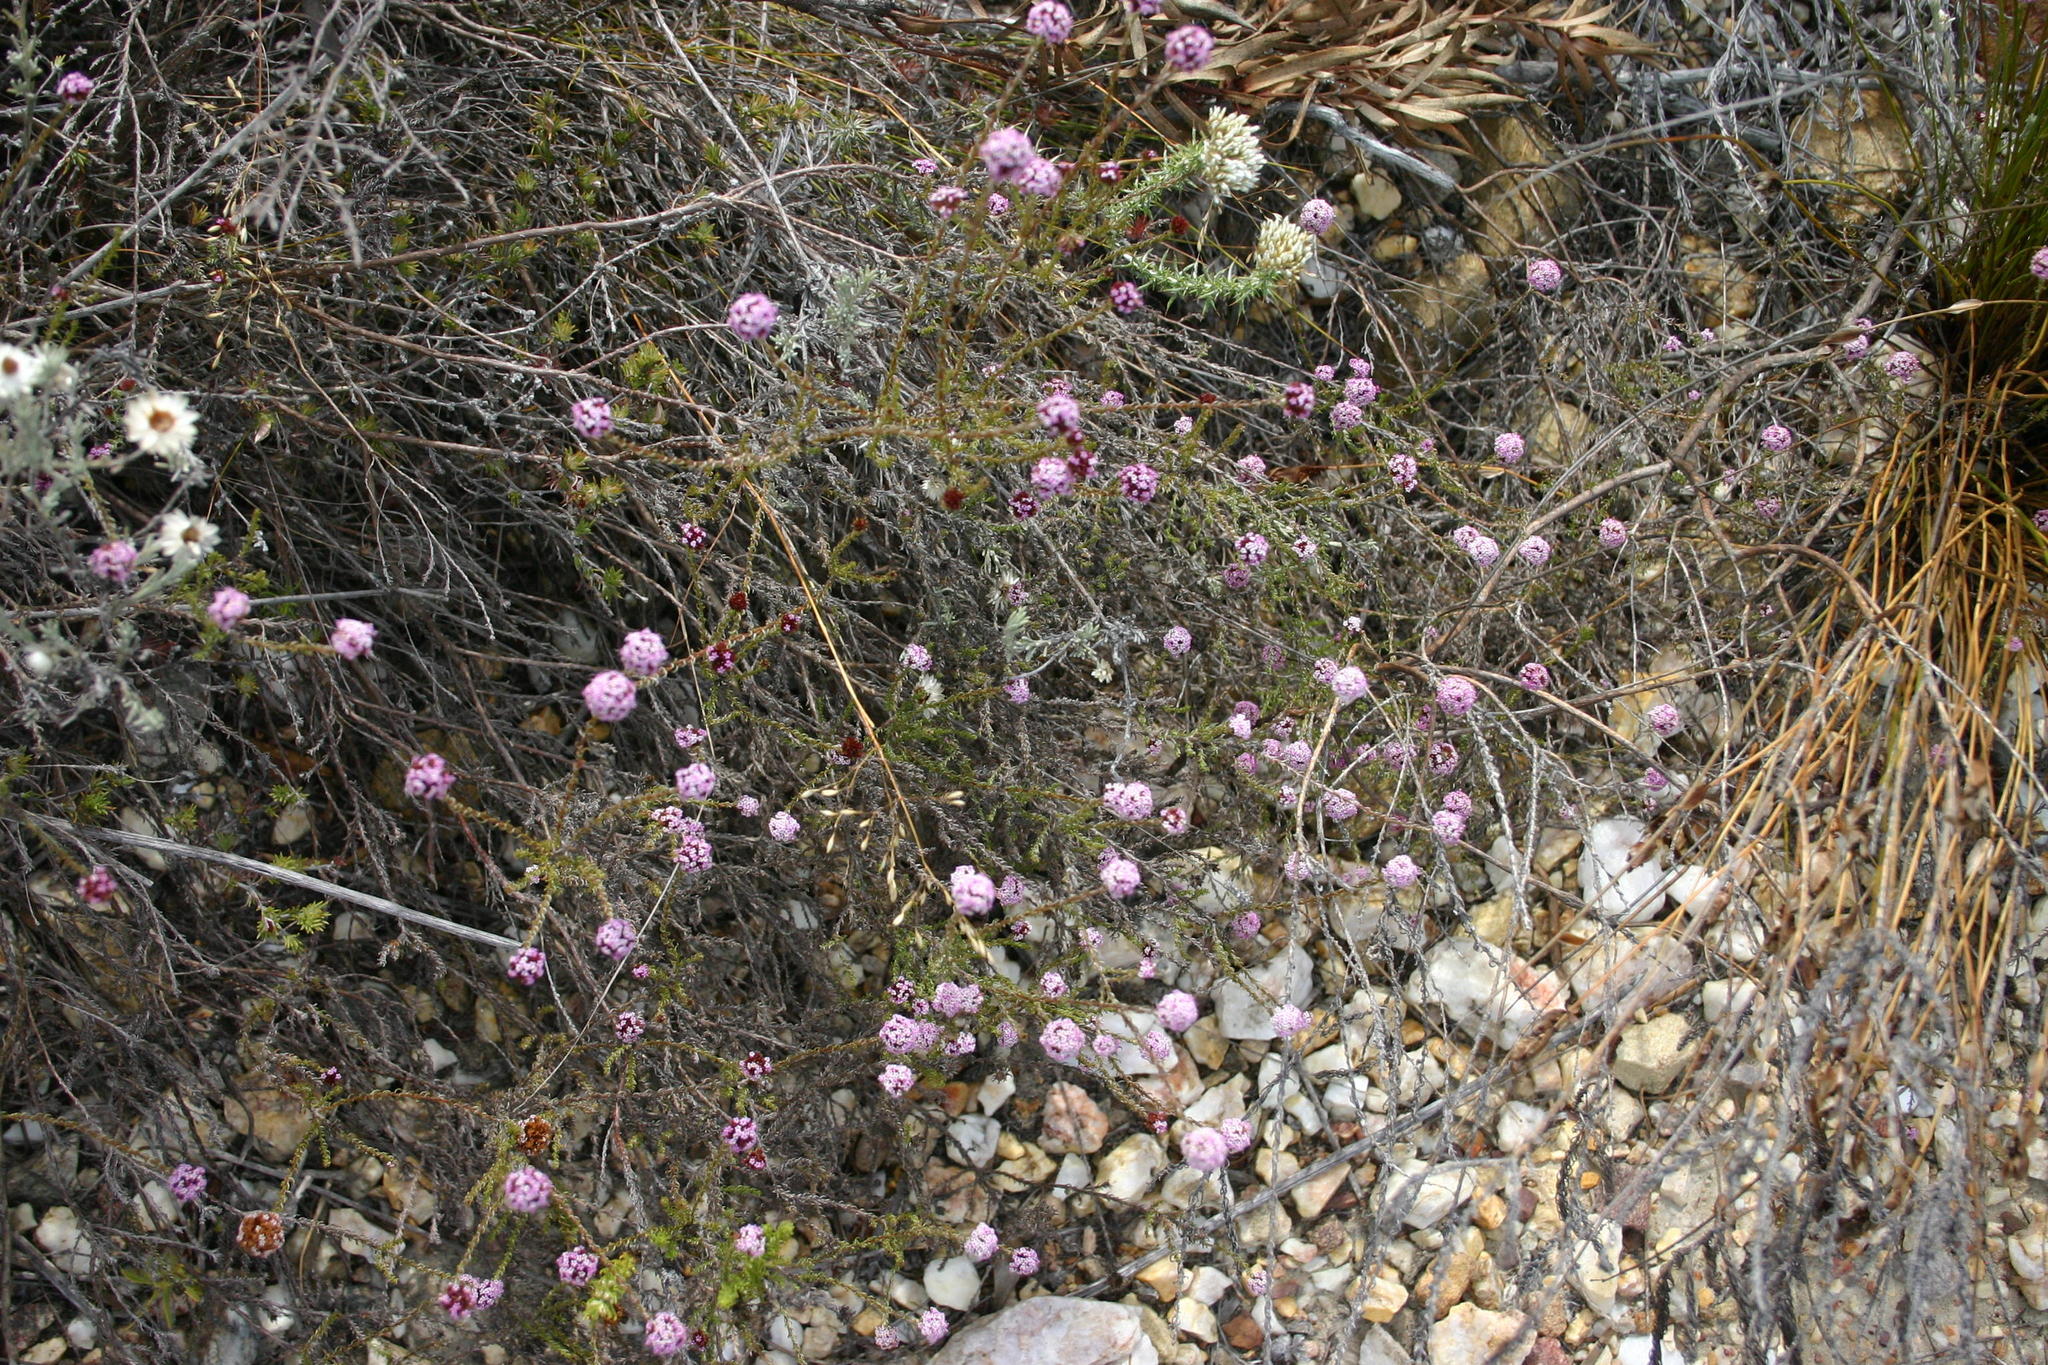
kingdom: Plantae
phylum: Tracheophyta
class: Magnoliopsida
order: Asterales
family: Asteraceae
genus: Stoebe
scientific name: Stoebe capitata
